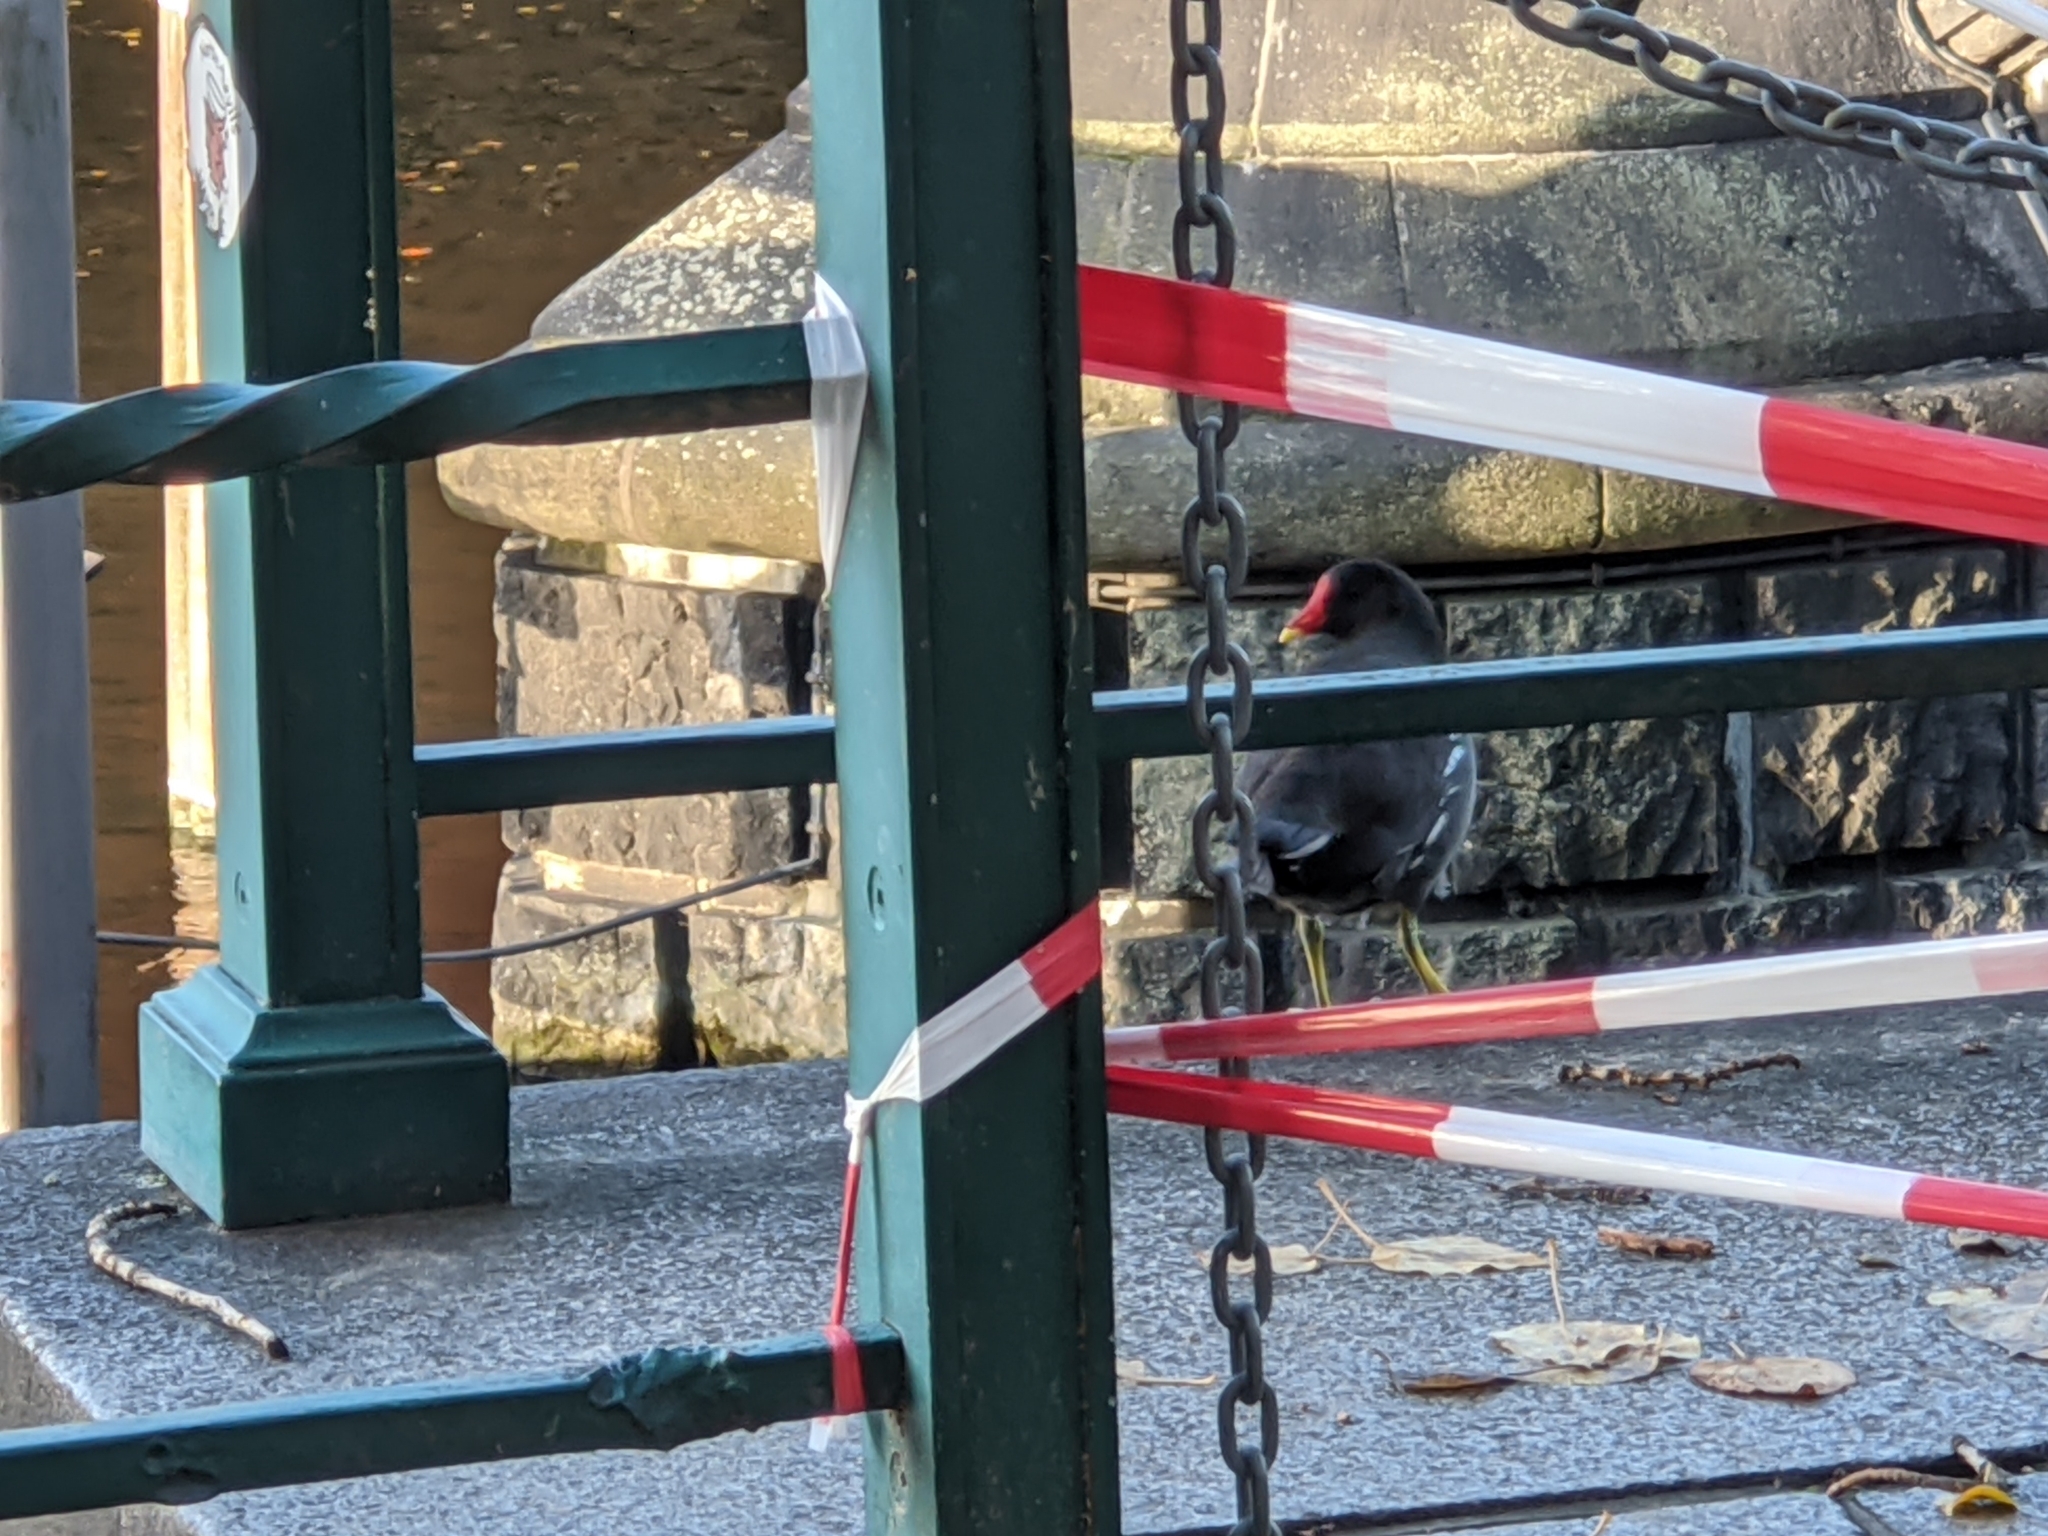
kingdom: Animalia
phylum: Chordata
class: Aves
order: Gruiformes
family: Rallidae
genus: Gallinula
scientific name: Gallinula chloropus
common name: Common moorhen
